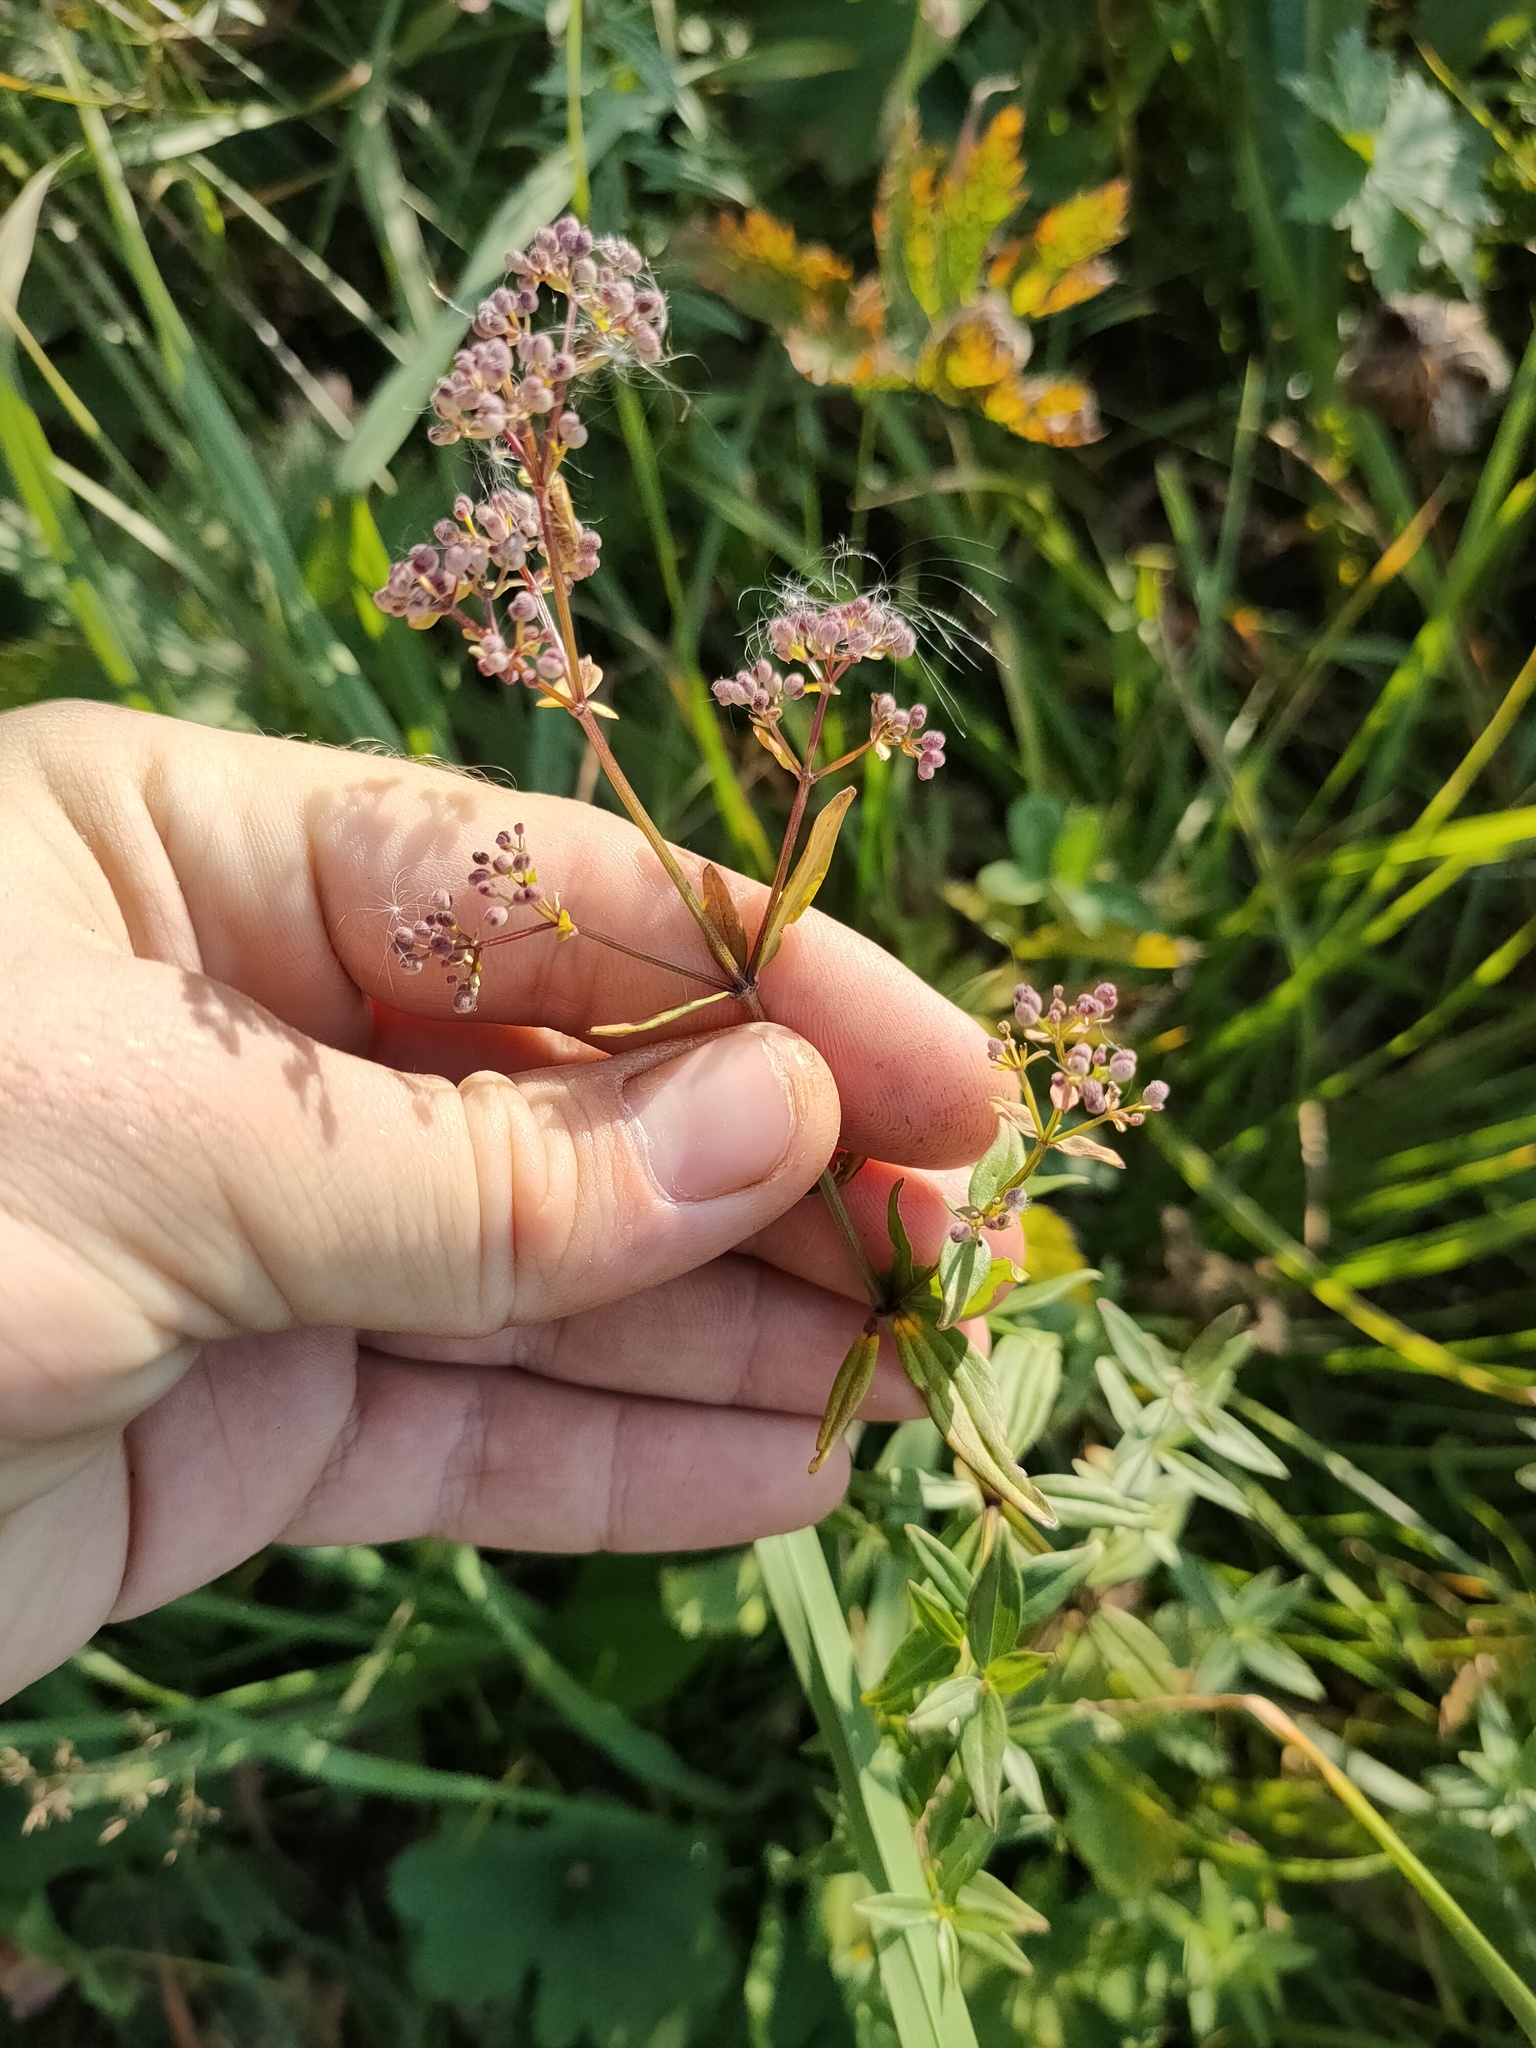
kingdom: Plantae
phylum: Tracheophyta
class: Magnoliopsida
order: Gentianales
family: Rubiaceae
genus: Galium
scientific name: Galium boreale
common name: Northern bedstraw
